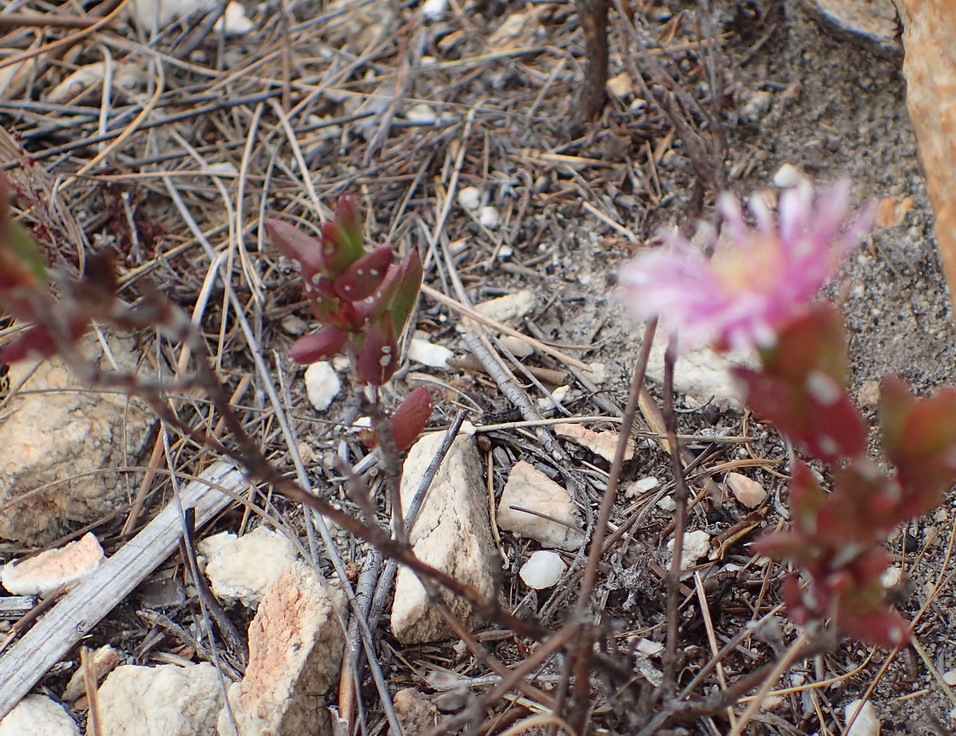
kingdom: Plantae
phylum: Tracheophyta
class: Magnoliopsida
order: Caryophyllales
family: Aizoaceae
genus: Ruschia
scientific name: Ruschia virgata
